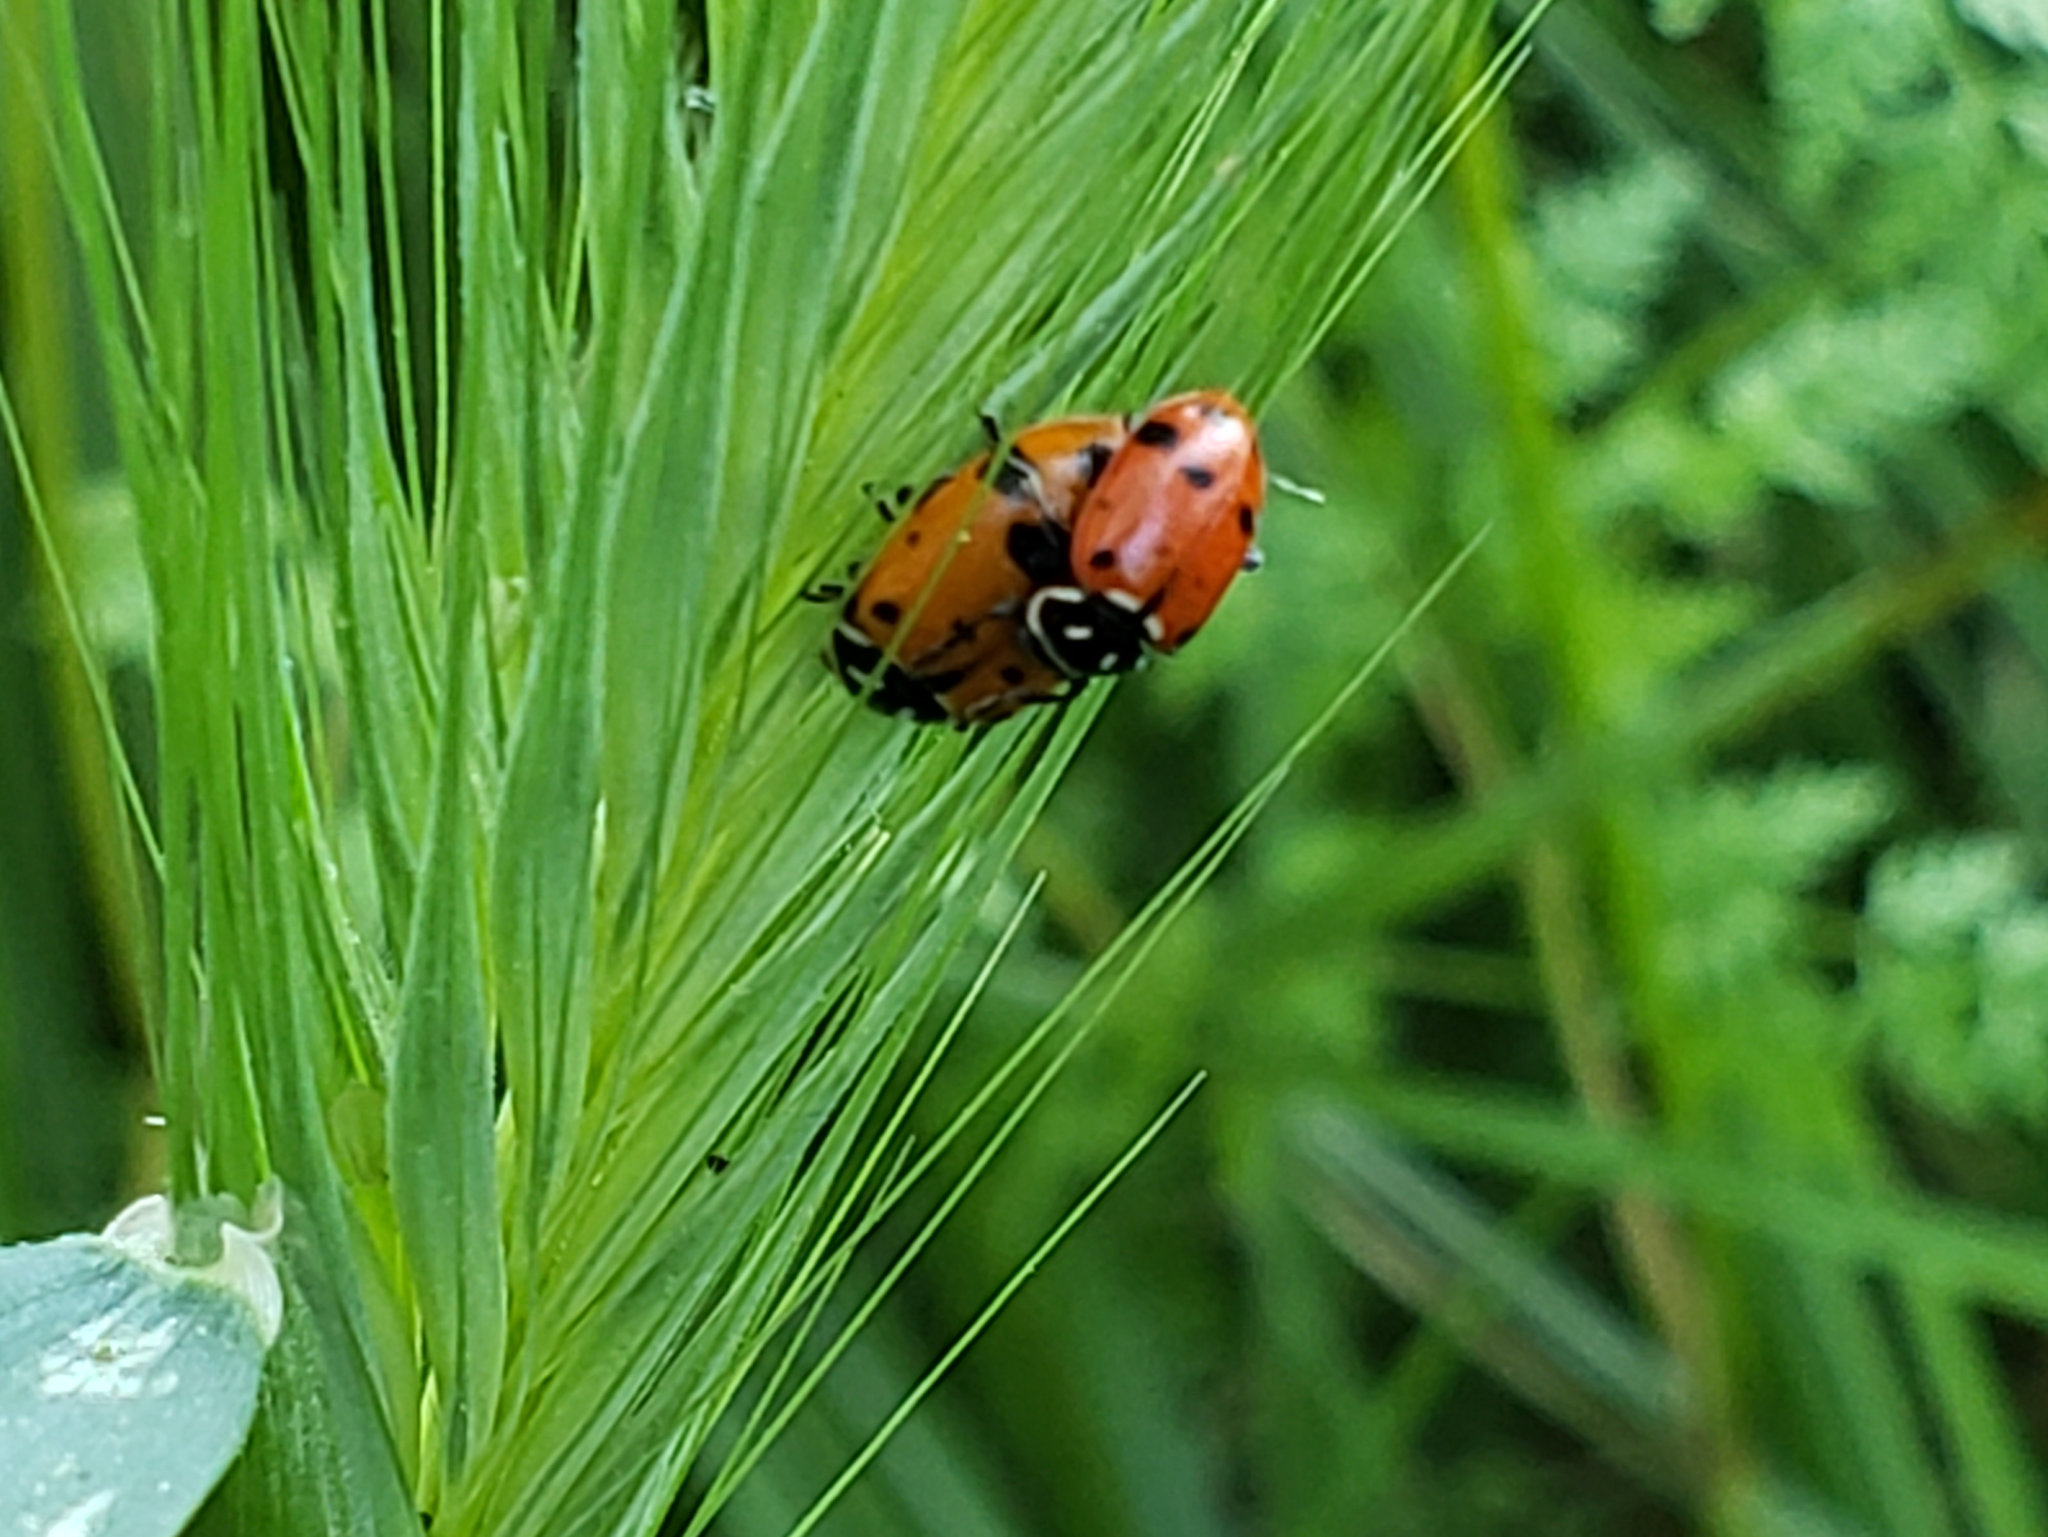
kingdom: Animalia
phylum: Arthropoda
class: Insecta
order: Coleoptera
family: Coccinellidae
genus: Hippodamia
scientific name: Hippodamia convergens
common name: Convergent lady beetle
